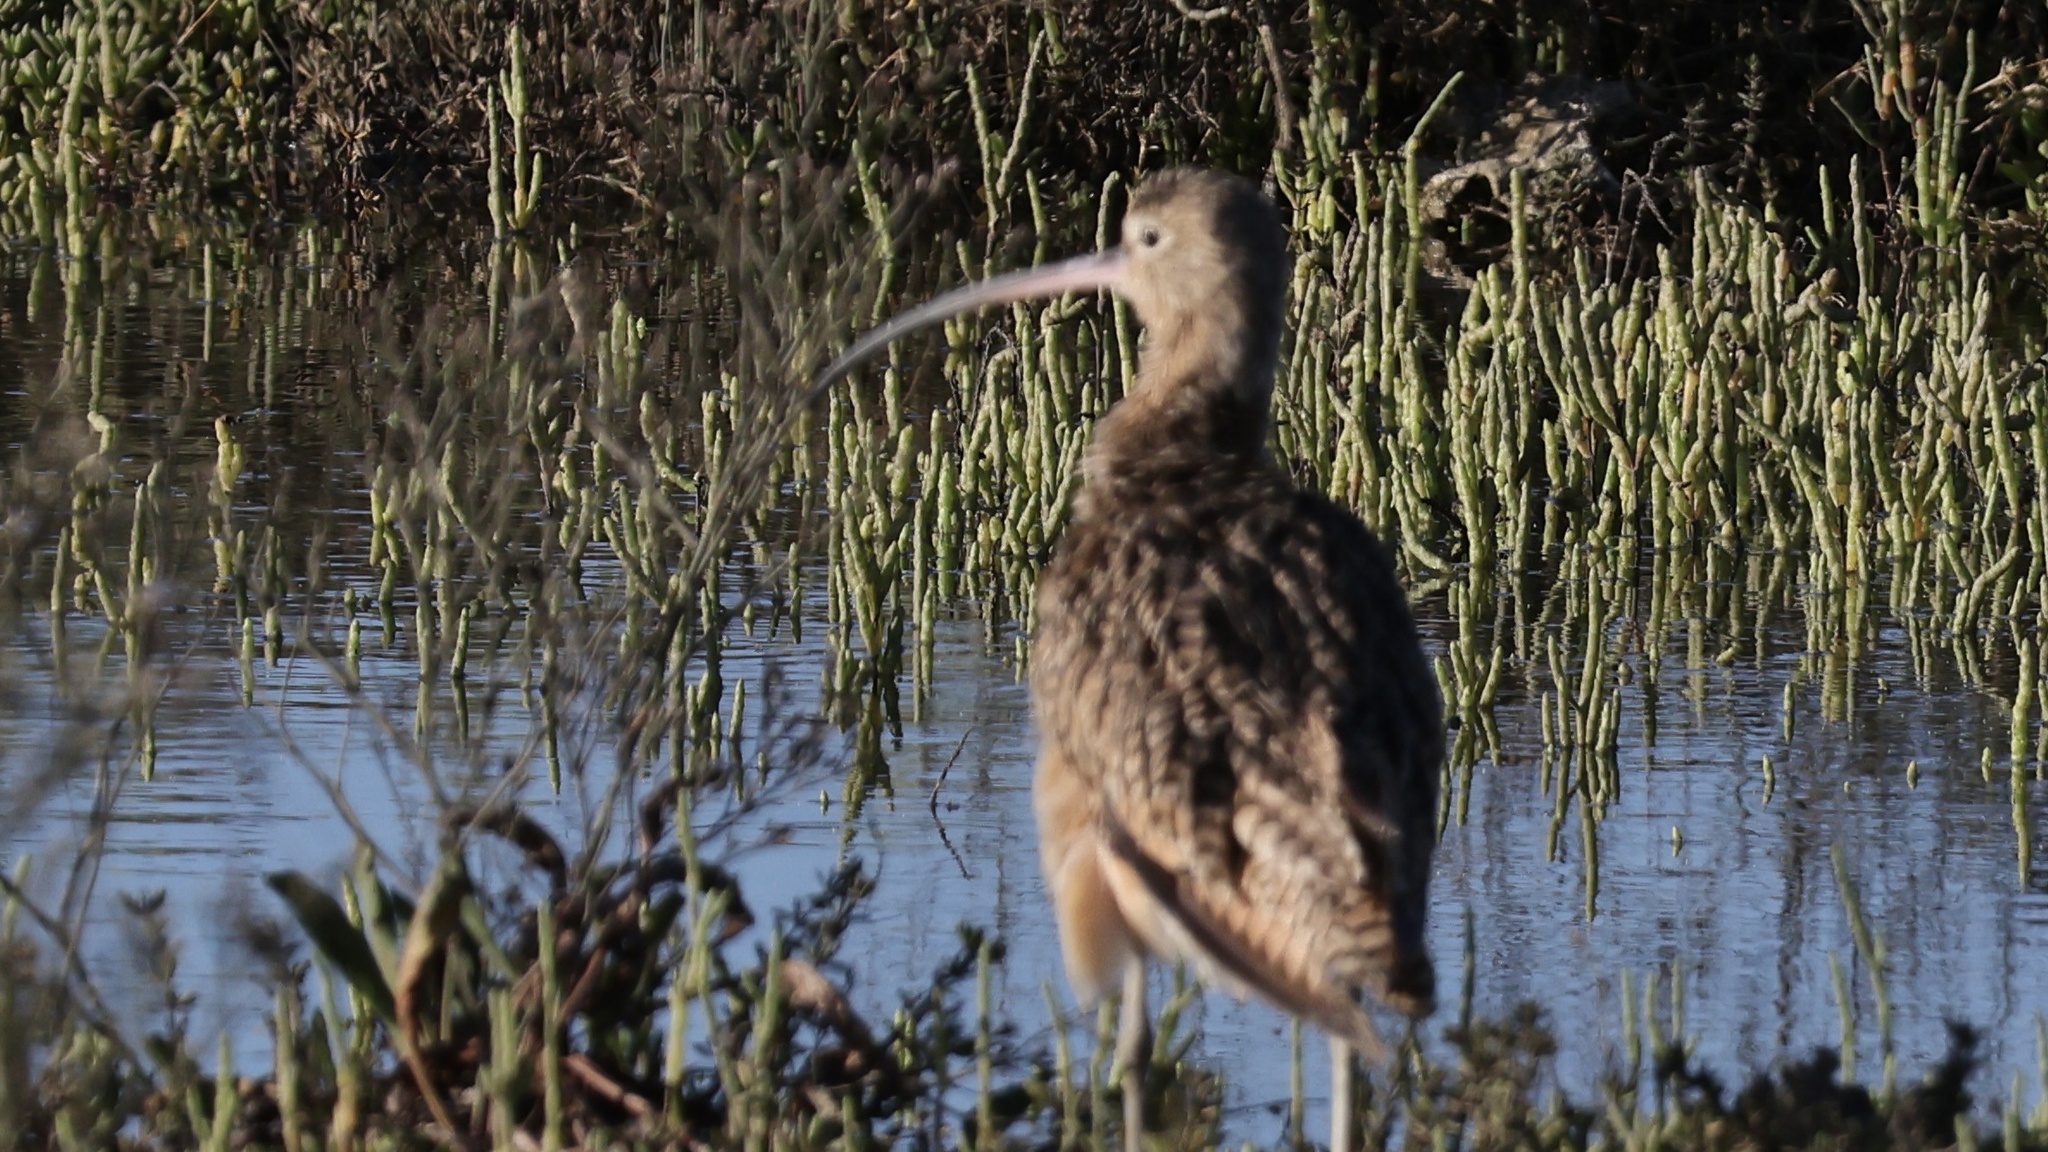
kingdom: Animalia
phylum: Chordata
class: Aves
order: Charadriiformes
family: Scolopacidae
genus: Numenius
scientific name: Numenius americanus
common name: Long-billed curlew
